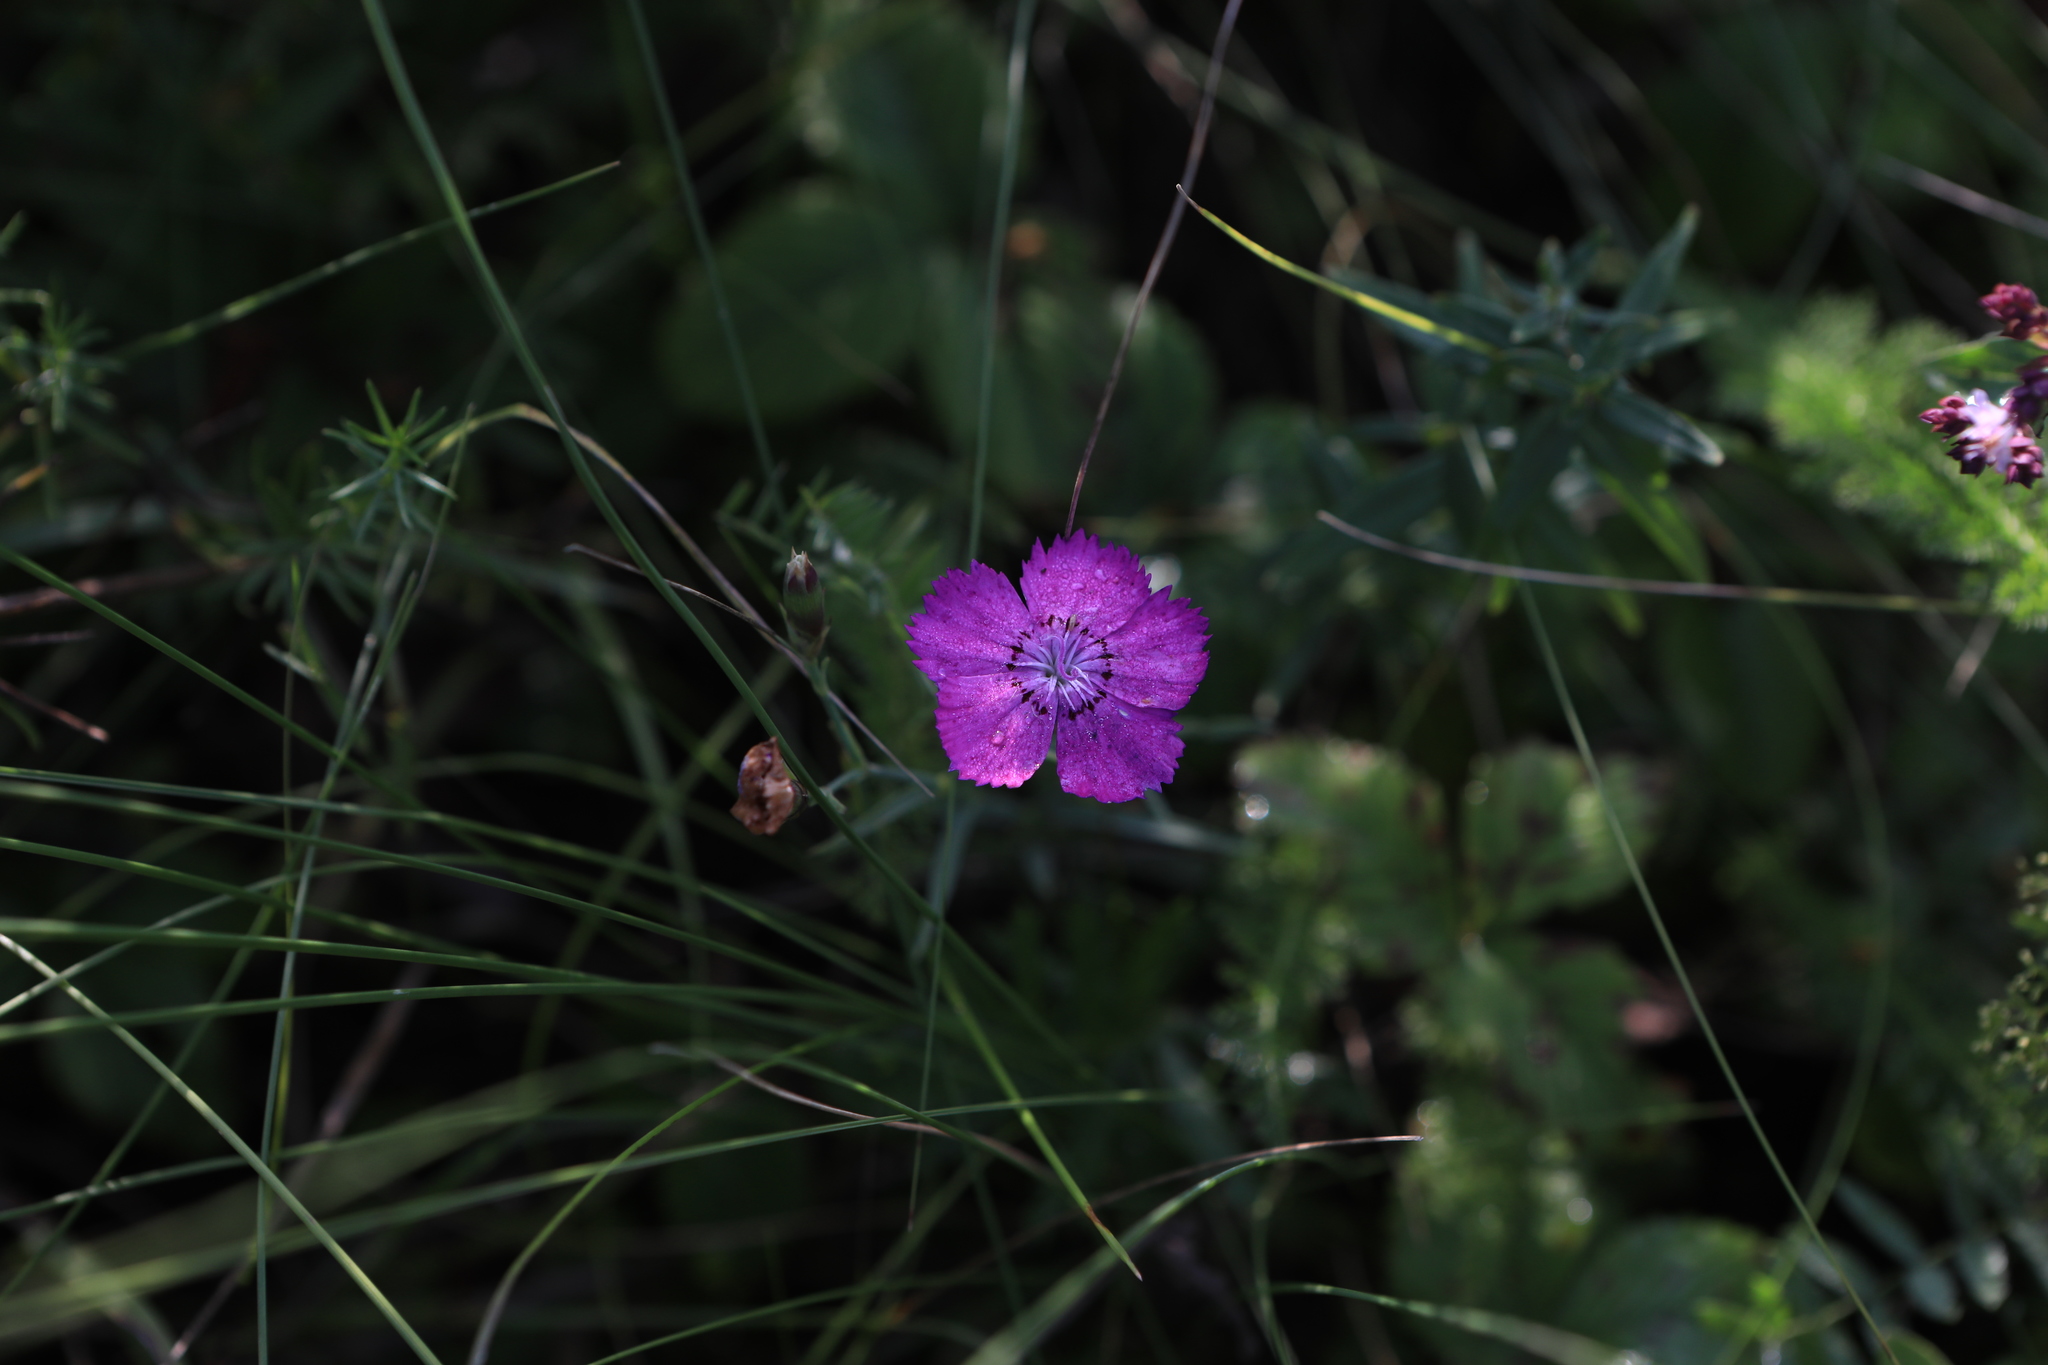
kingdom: Plantae
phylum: Tracheophyta
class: Magnoliopsida
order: Caryophyllales
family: Caryophyllaceae
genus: Dianthus
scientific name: Dianthus chinensis
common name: Rainbow pink
